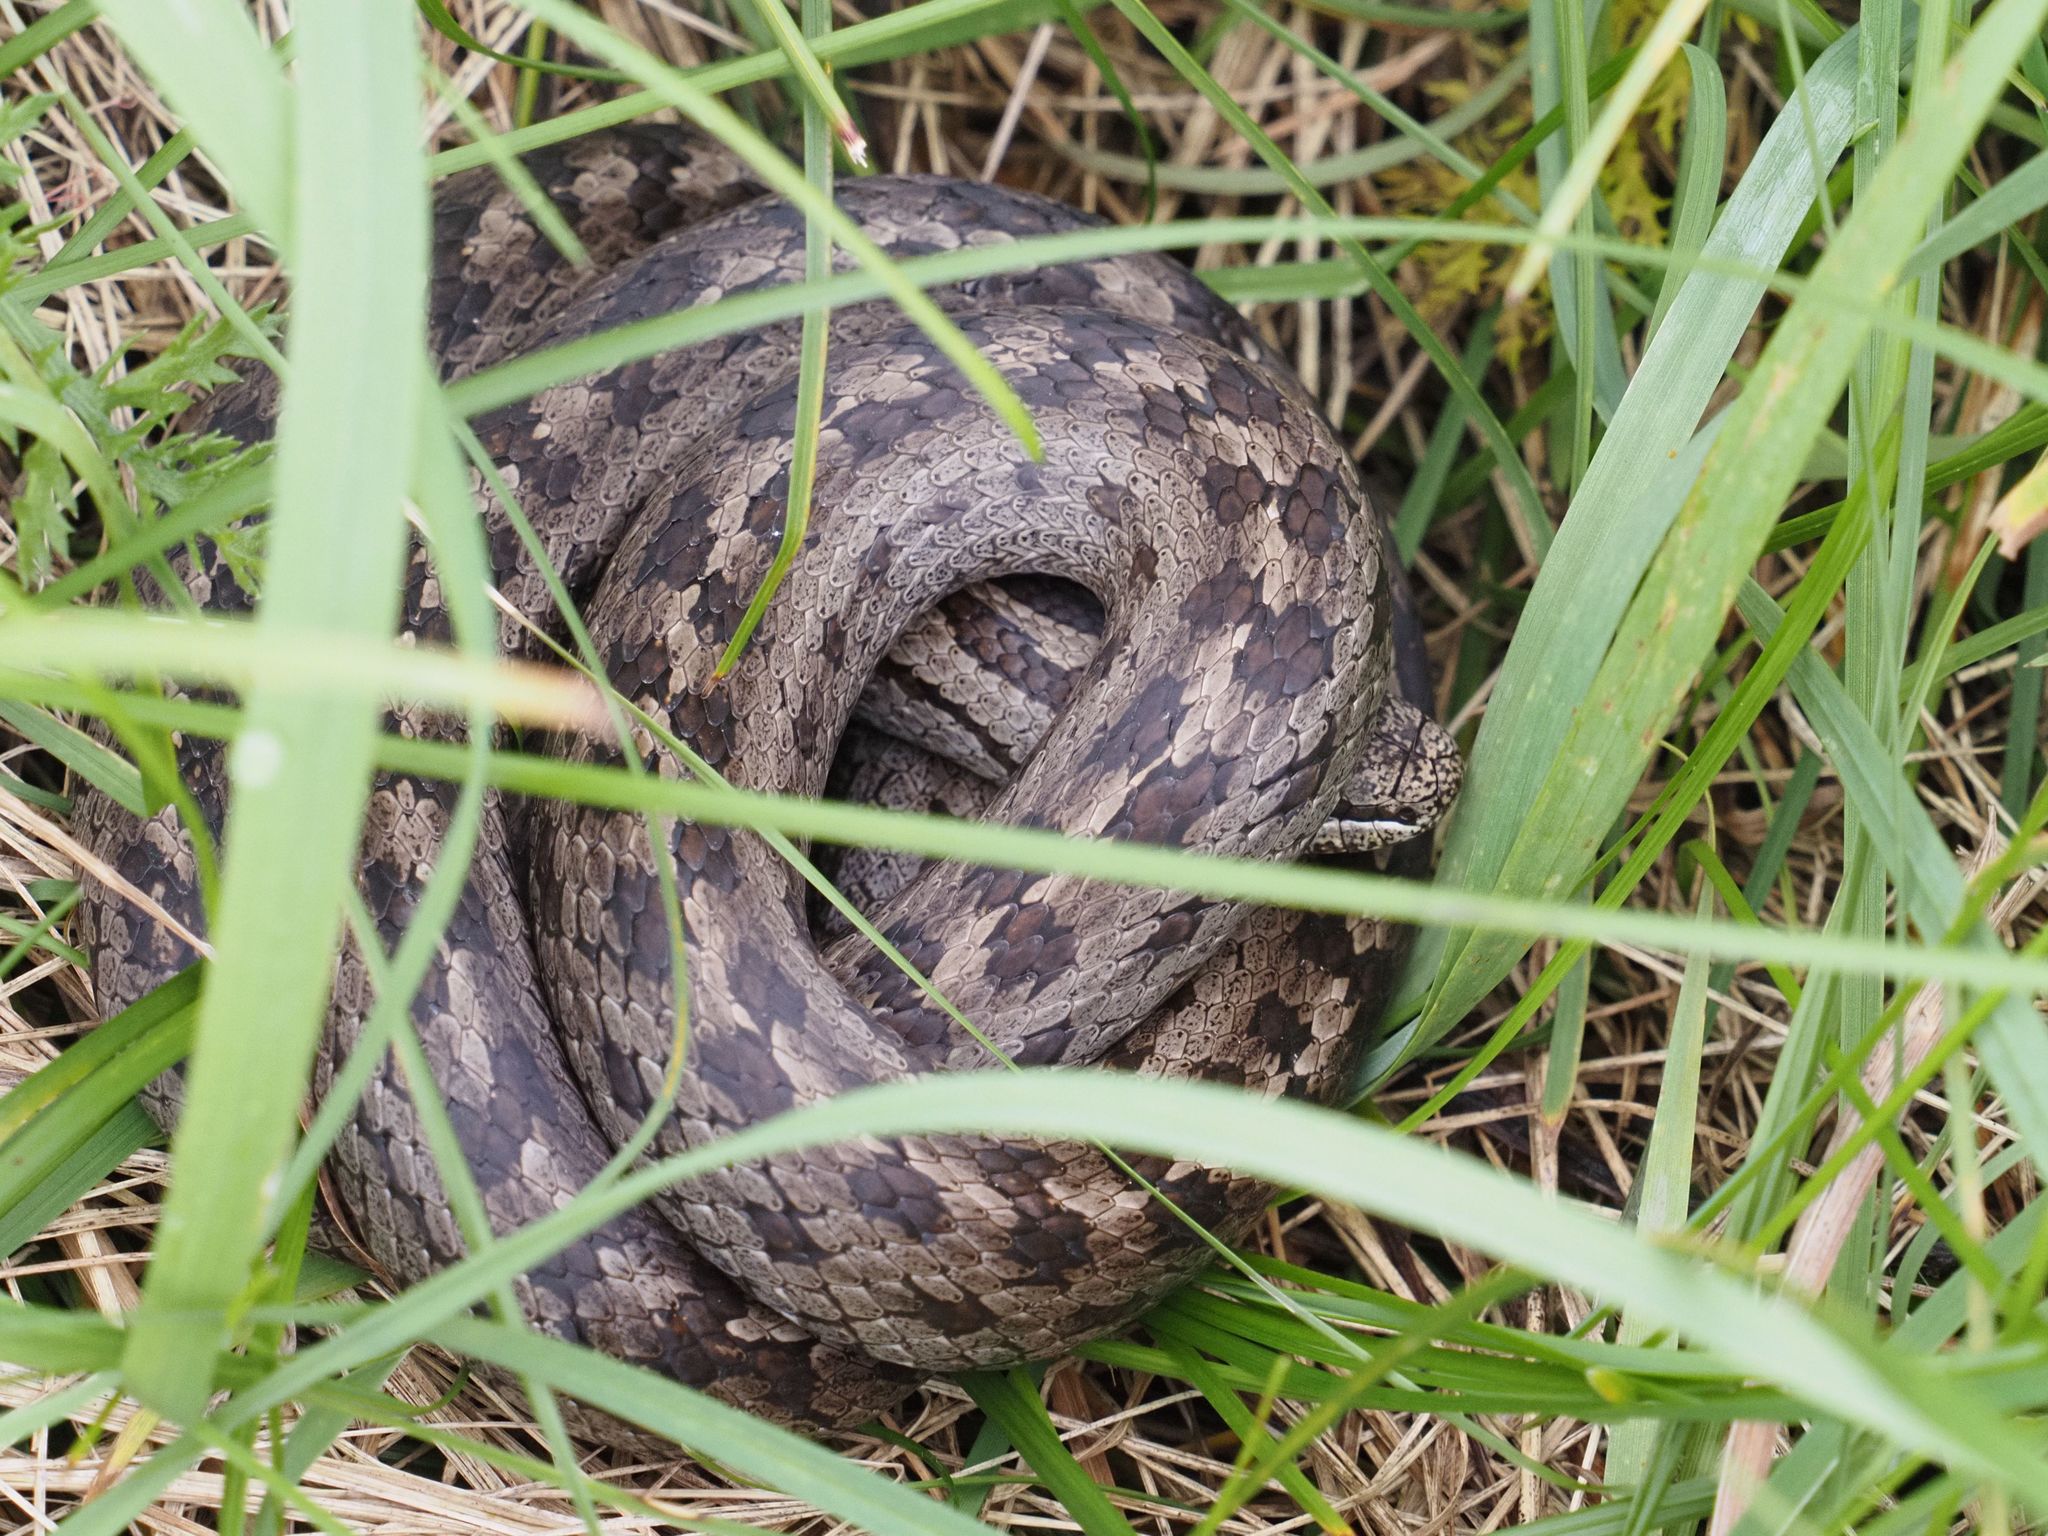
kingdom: Animalia
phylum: Chordata
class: Squamata
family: Colubridae
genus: Coronella
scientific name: Coronella austriaca
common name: Smooth snake
